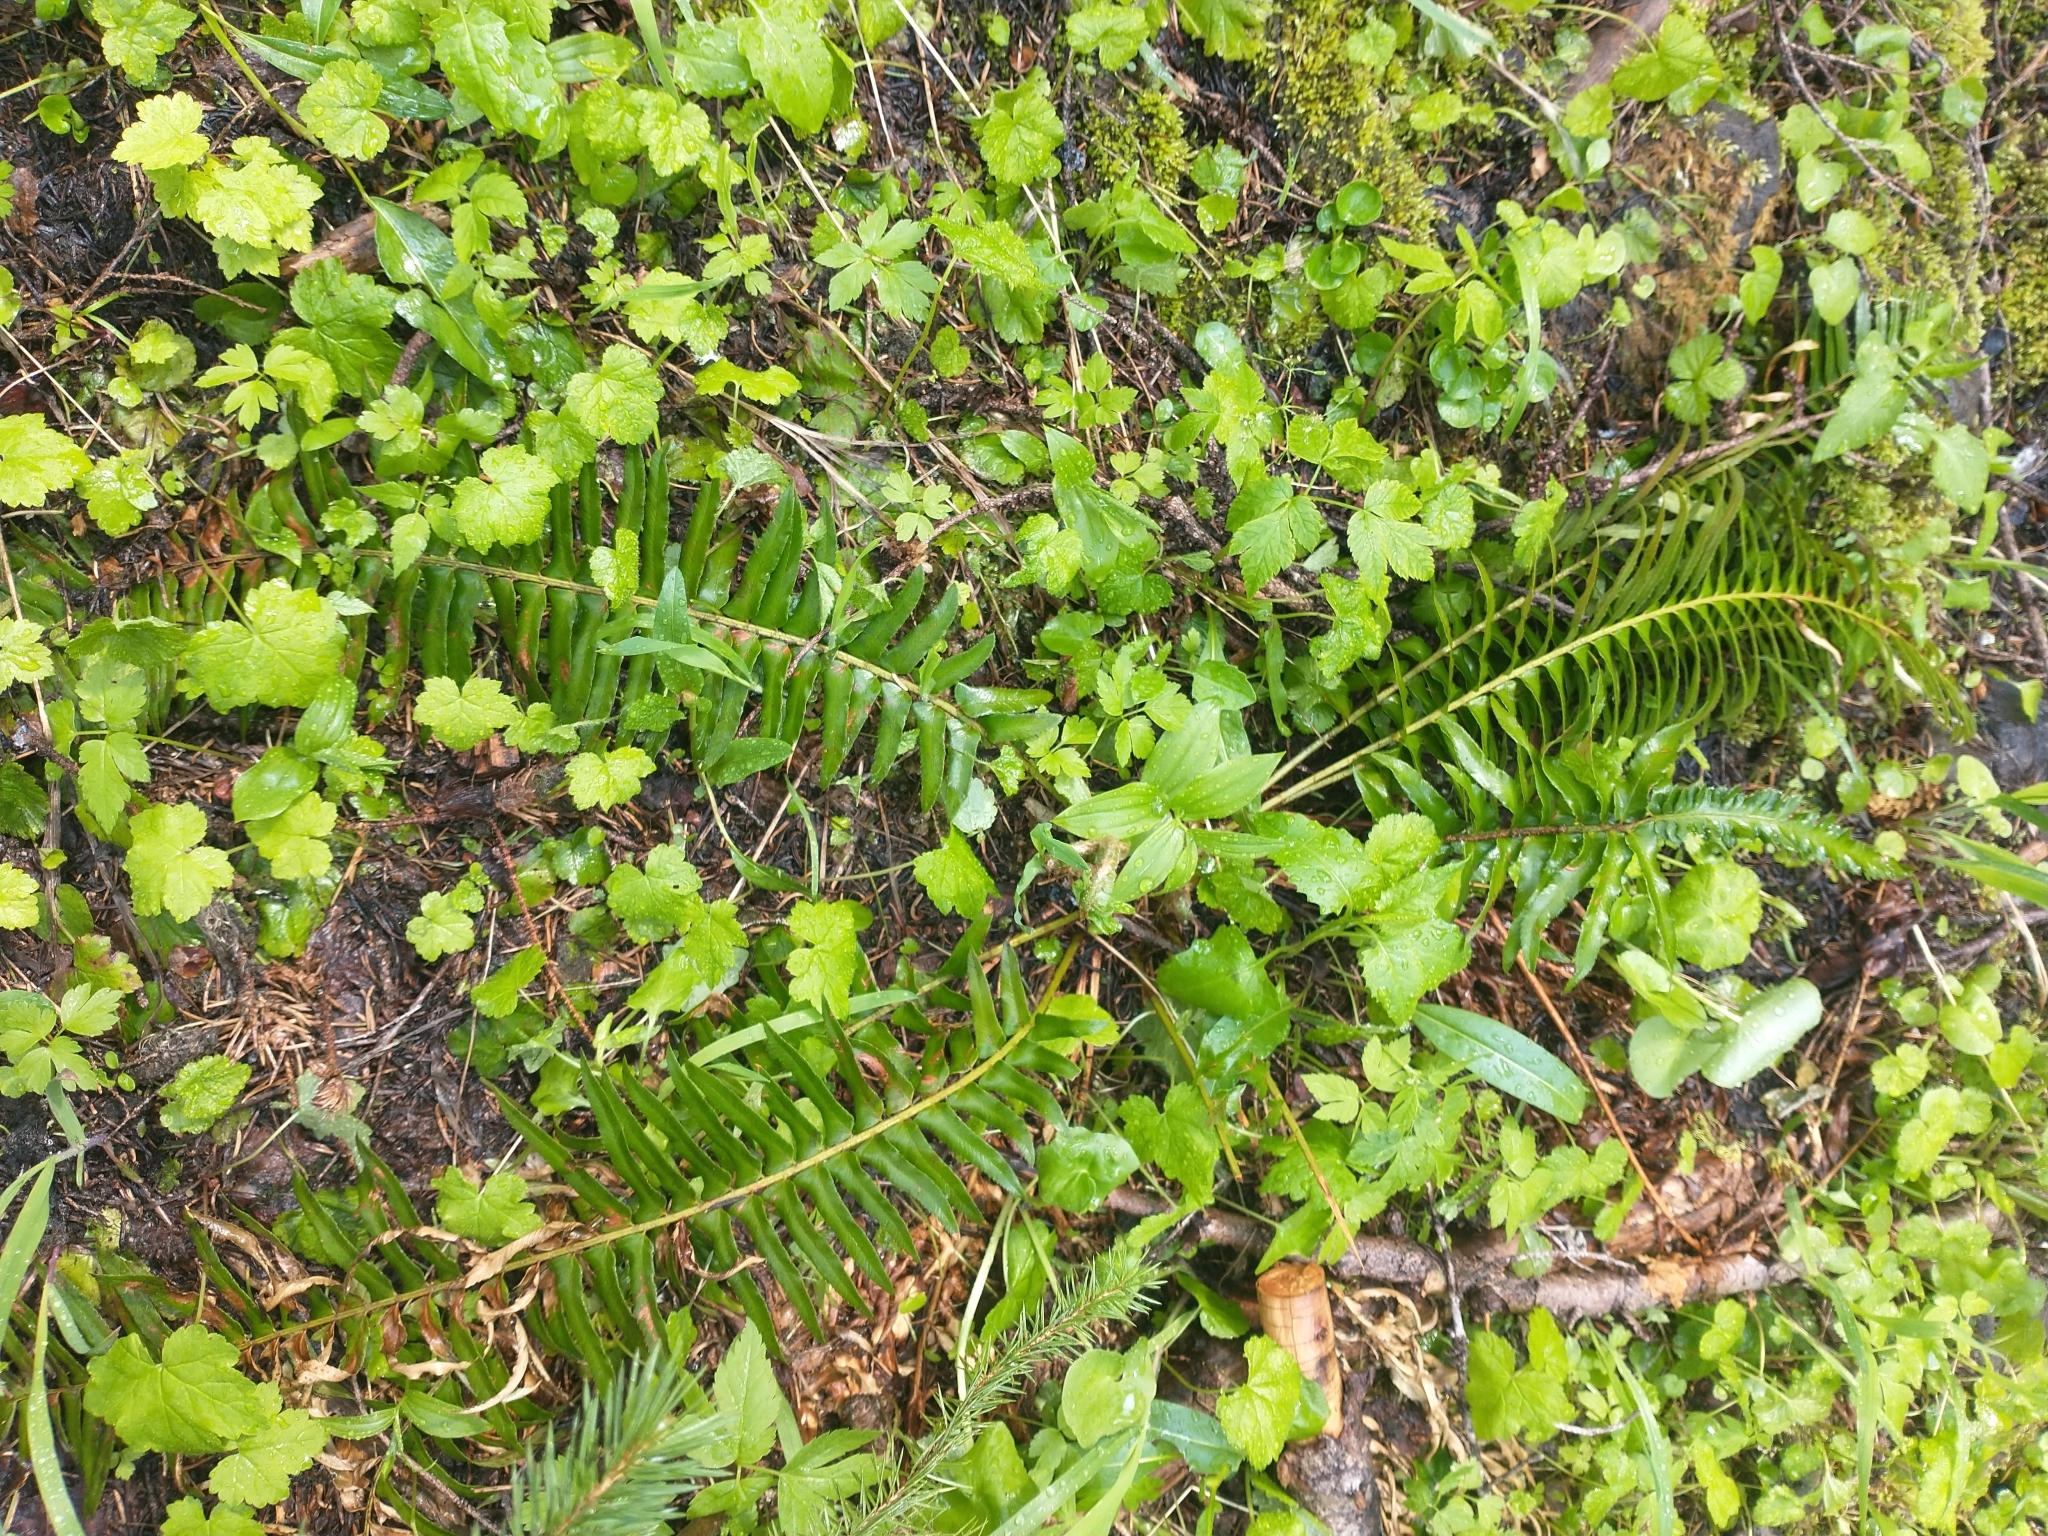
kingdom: Plantae
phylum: Tracheophyta
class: Polypodiopsida
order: Polypodiales
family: Dryopteridaceae
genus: Polystichum
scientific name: Polystichum munitum
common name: Western sword-fern
